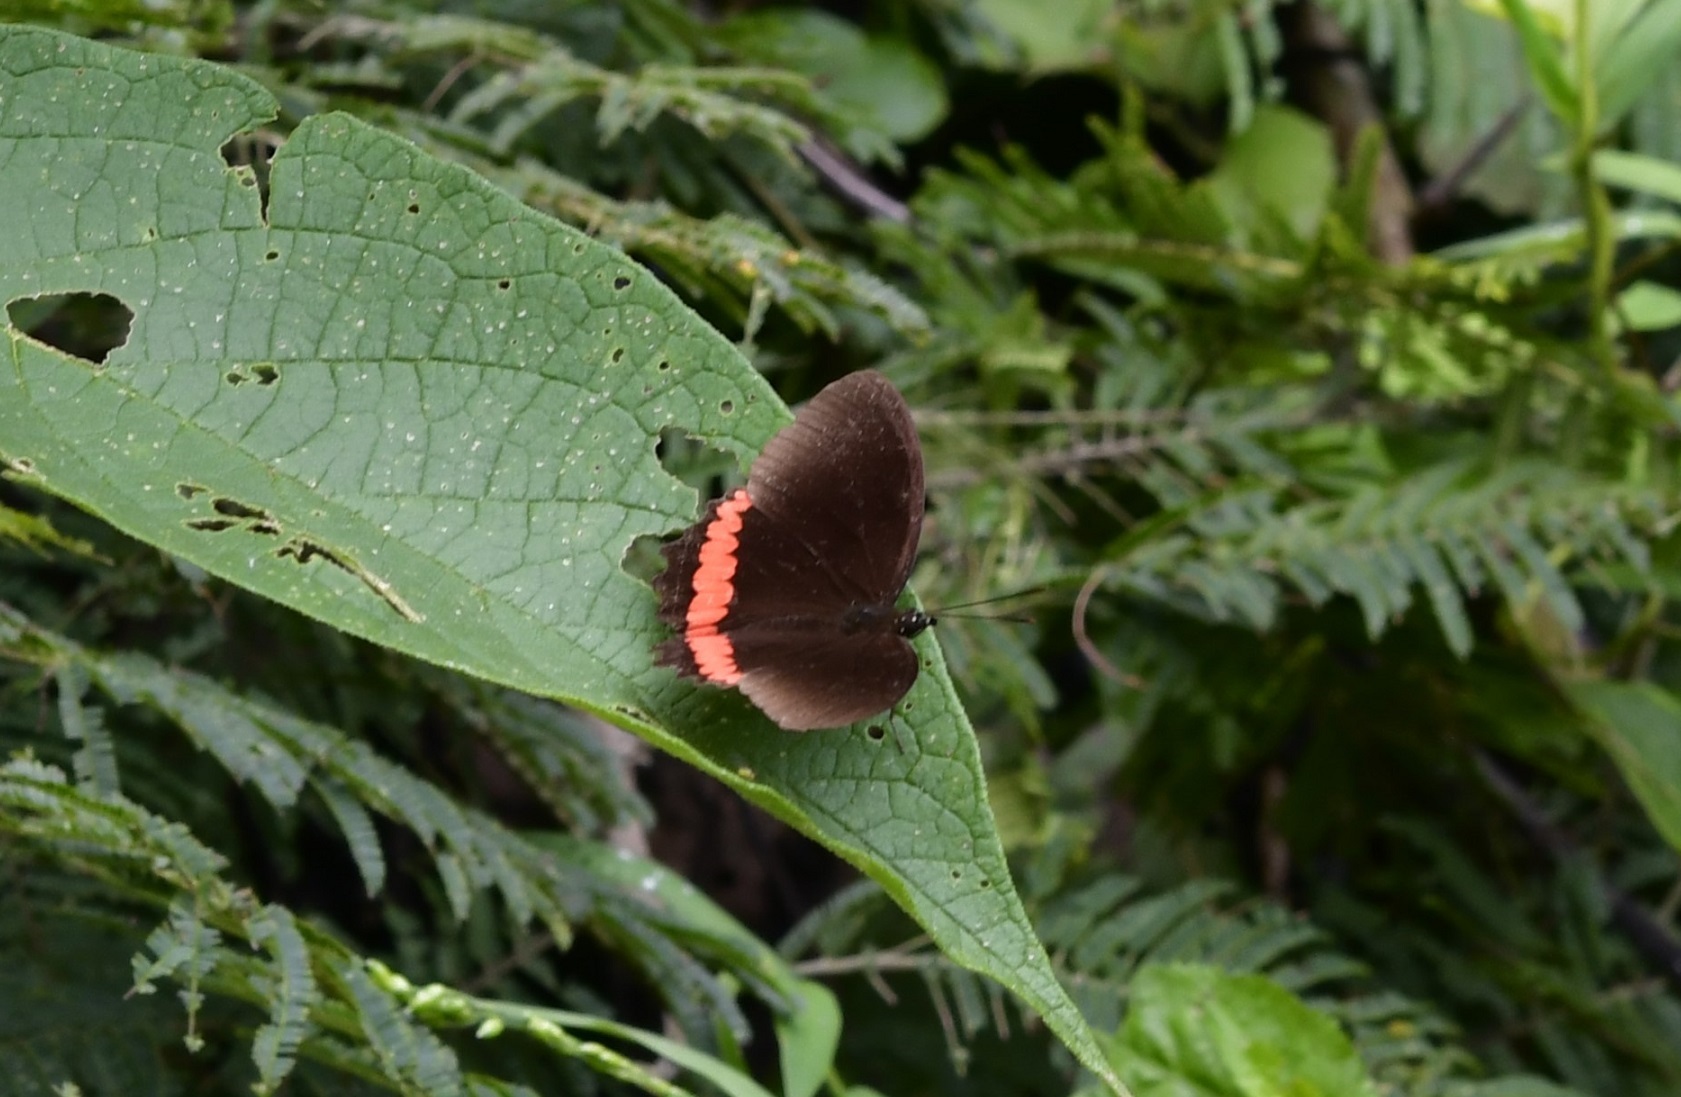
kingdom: Animalia
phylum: Arthropoda
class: Insecta
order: Lepidoptera
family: Nymphalidae
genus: Biblis
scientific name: Biblis aganisa
